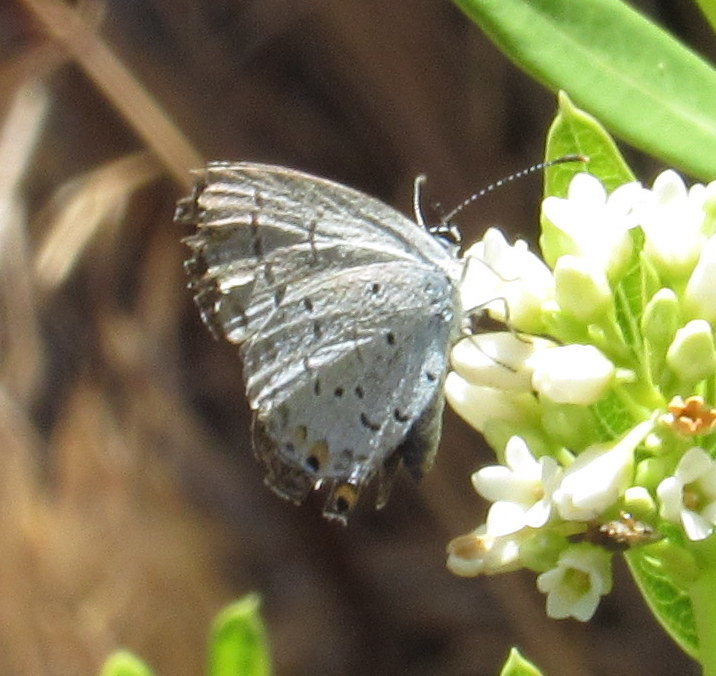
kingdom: Animalia
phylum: Arthropoda
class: Insecta
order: Lepidoptera
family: Lycaenidae
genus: Elkalyce
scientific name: Elkalyce comyntas
